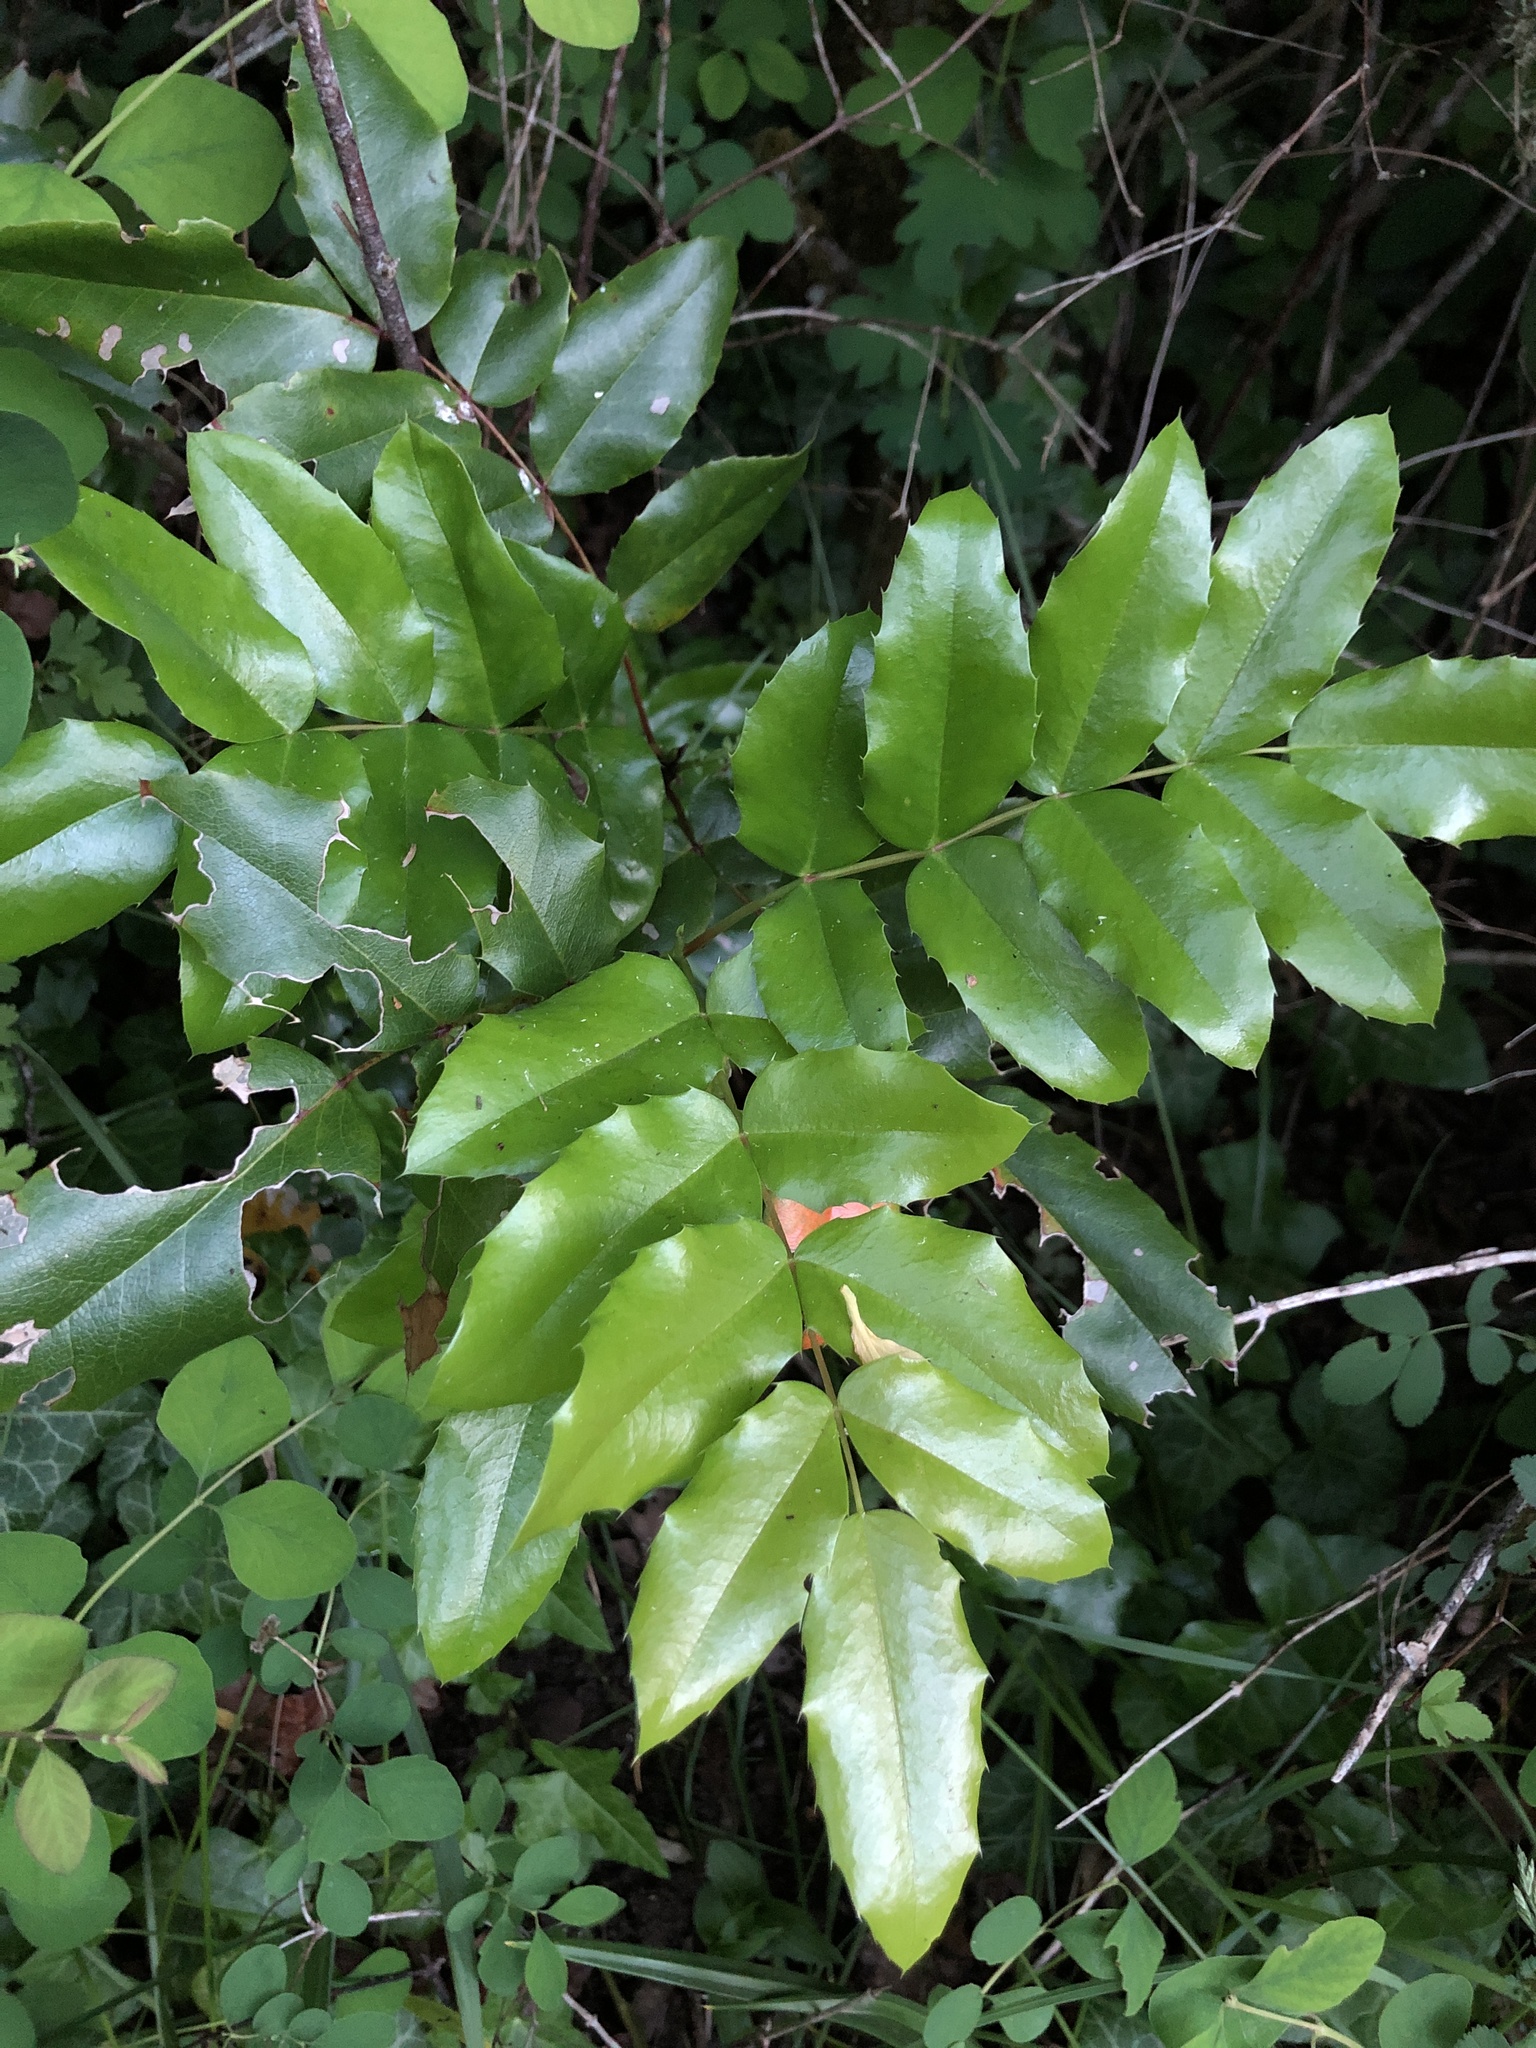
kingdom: Plantae
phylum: Tracheophyta
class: Magnoliopsida
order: Ranunculales
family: Berberidaceae
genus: Mahonia
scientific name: Mahonia aquifolium
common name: Oregon-grape
